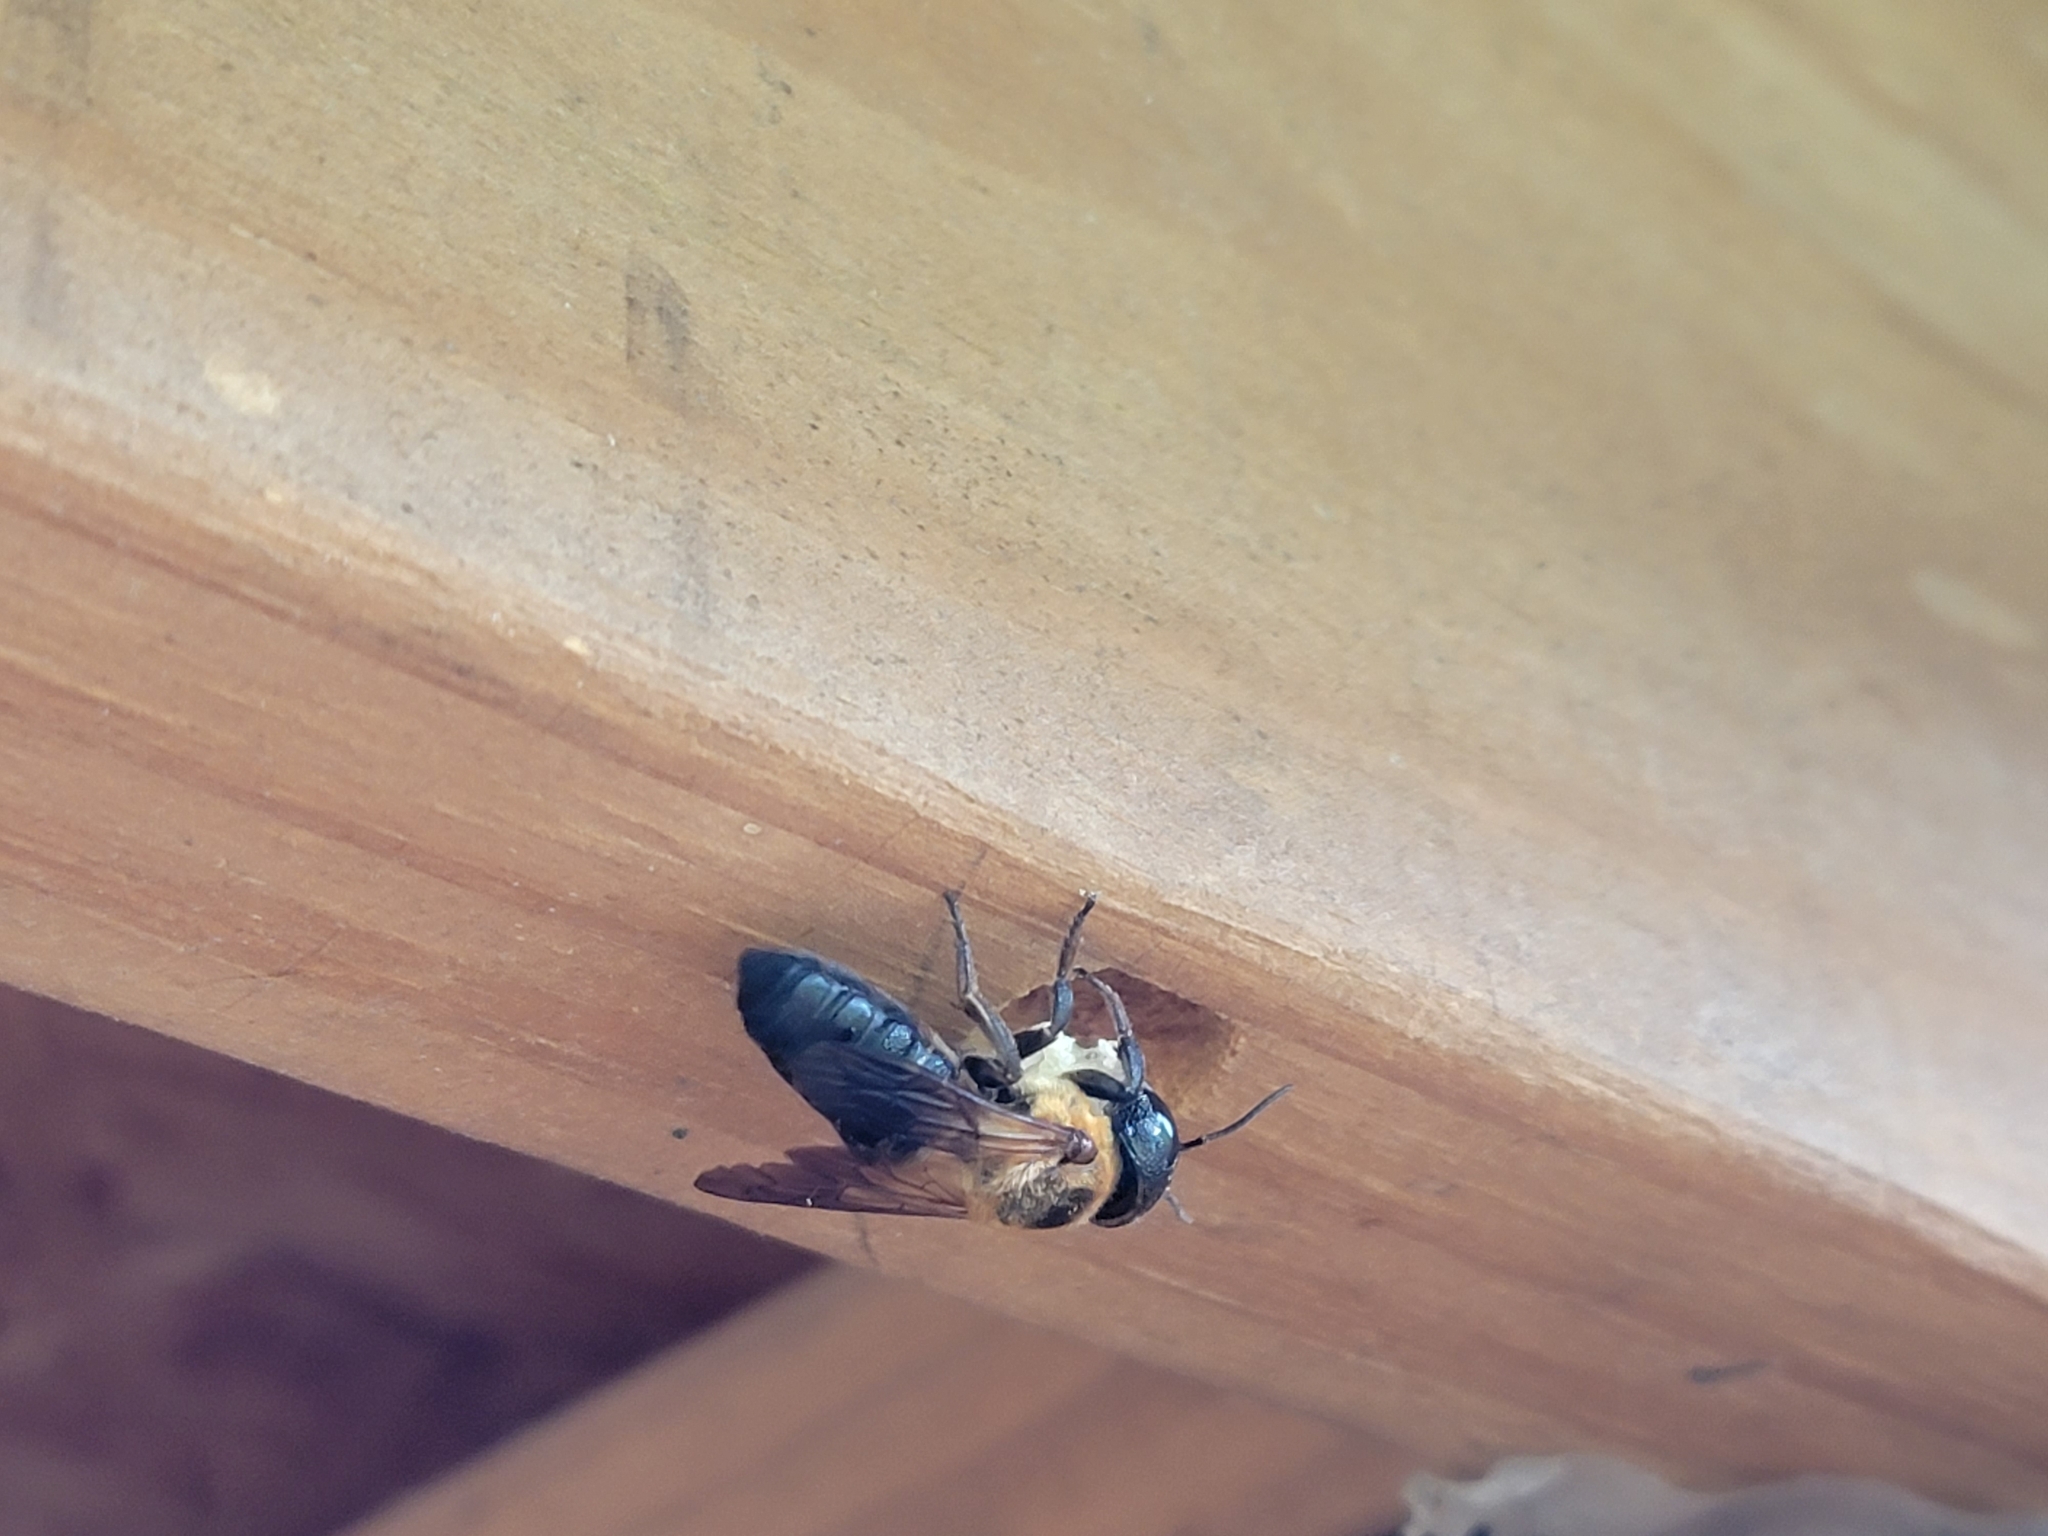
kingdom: Animalia
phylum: Arthropoda
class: Insecta
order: Hymenoptera
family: Megachilidae
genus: Megachile
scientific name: Megachile sculpturalis
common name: Sculptured resin bee
